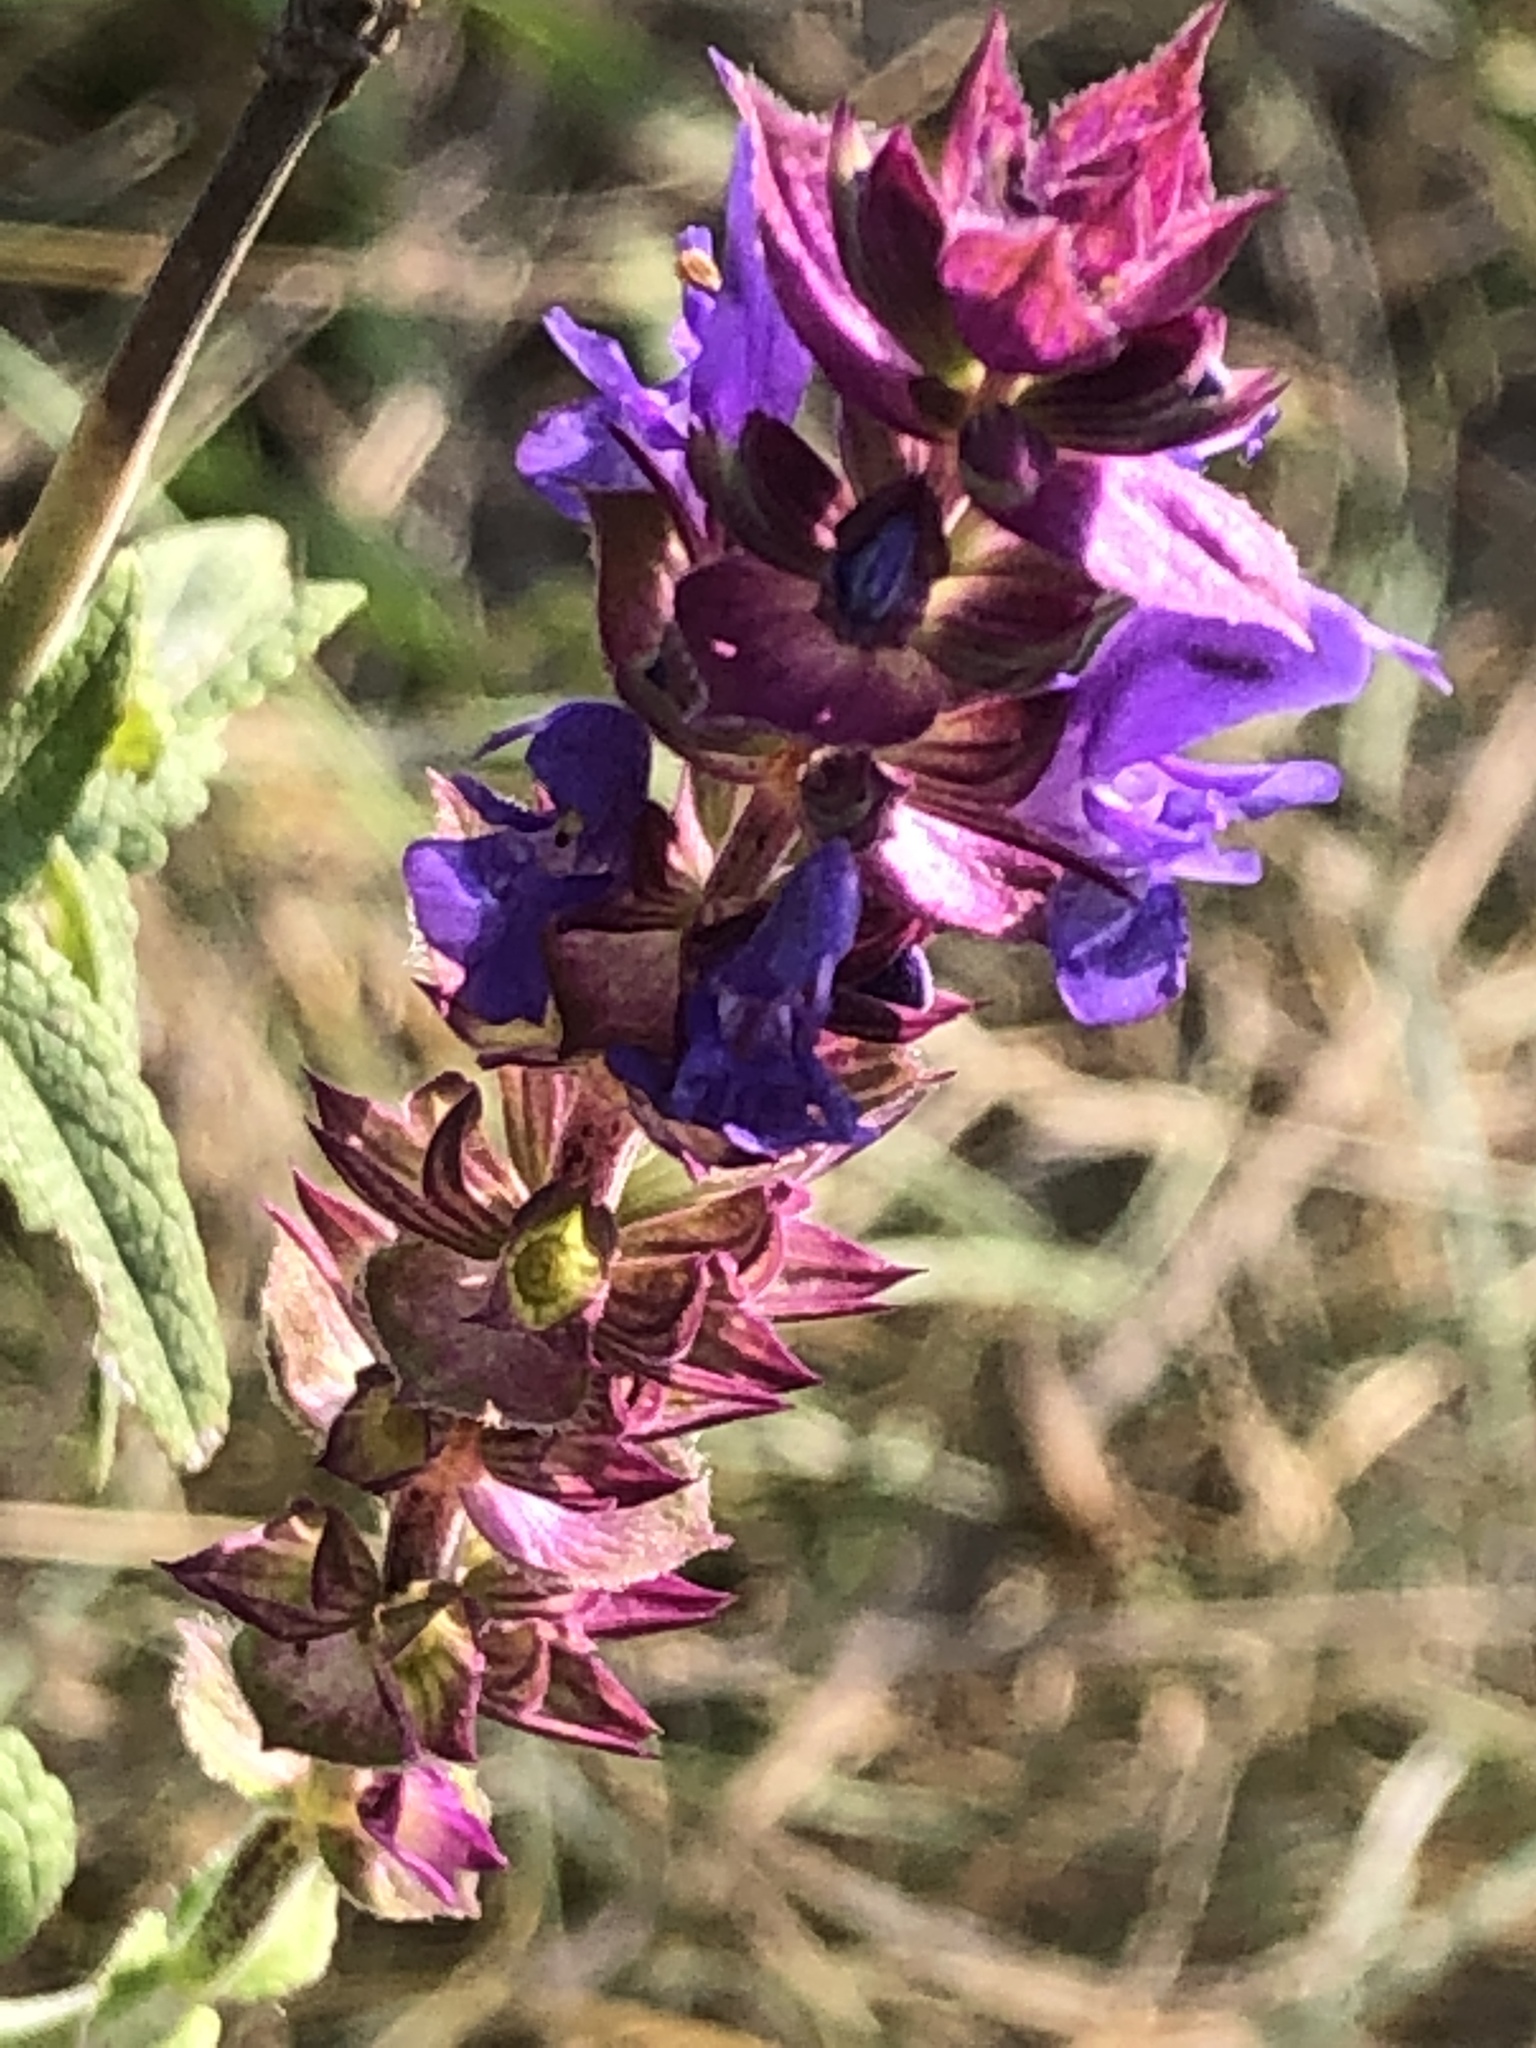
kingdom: Plantae
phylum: Tracheophyta
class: Magnoliopsida
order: Lamiales
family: Lamiaceae
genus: Salvia
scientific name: Salvia nemorosa
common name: Balkan clary
